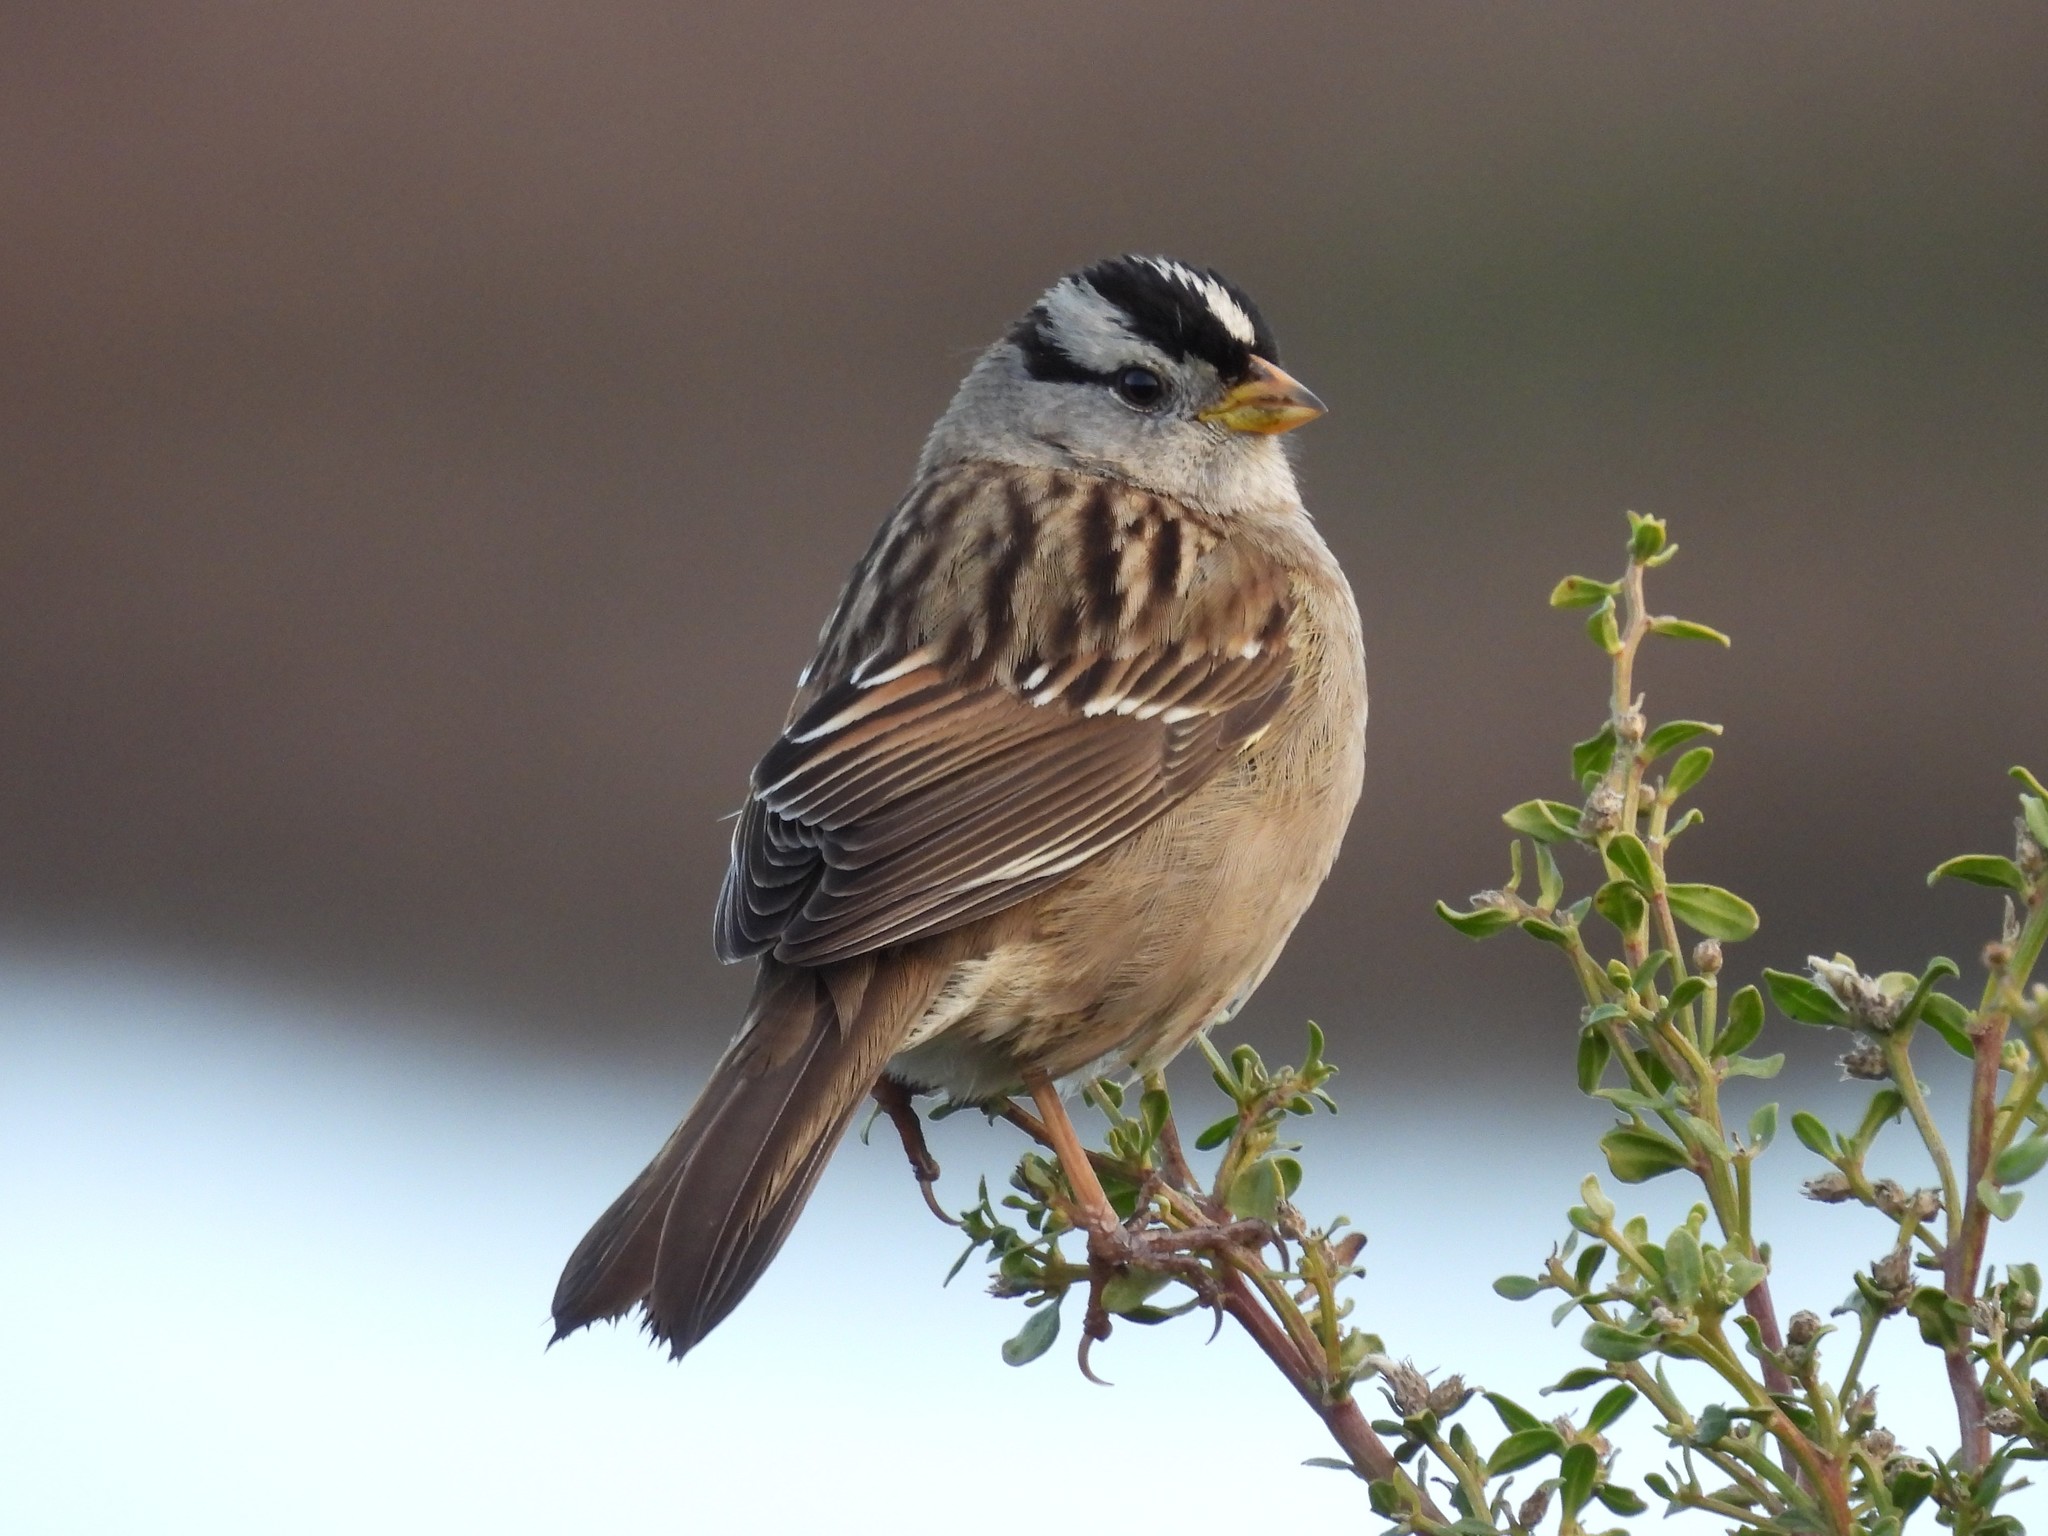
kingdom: Animalia
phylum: Chordata
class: Aves
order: Passeriformes
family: Passerellidae
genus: Zonotrichia
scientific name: Zonotrichia leucophrys
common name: White-crowned sparrow
